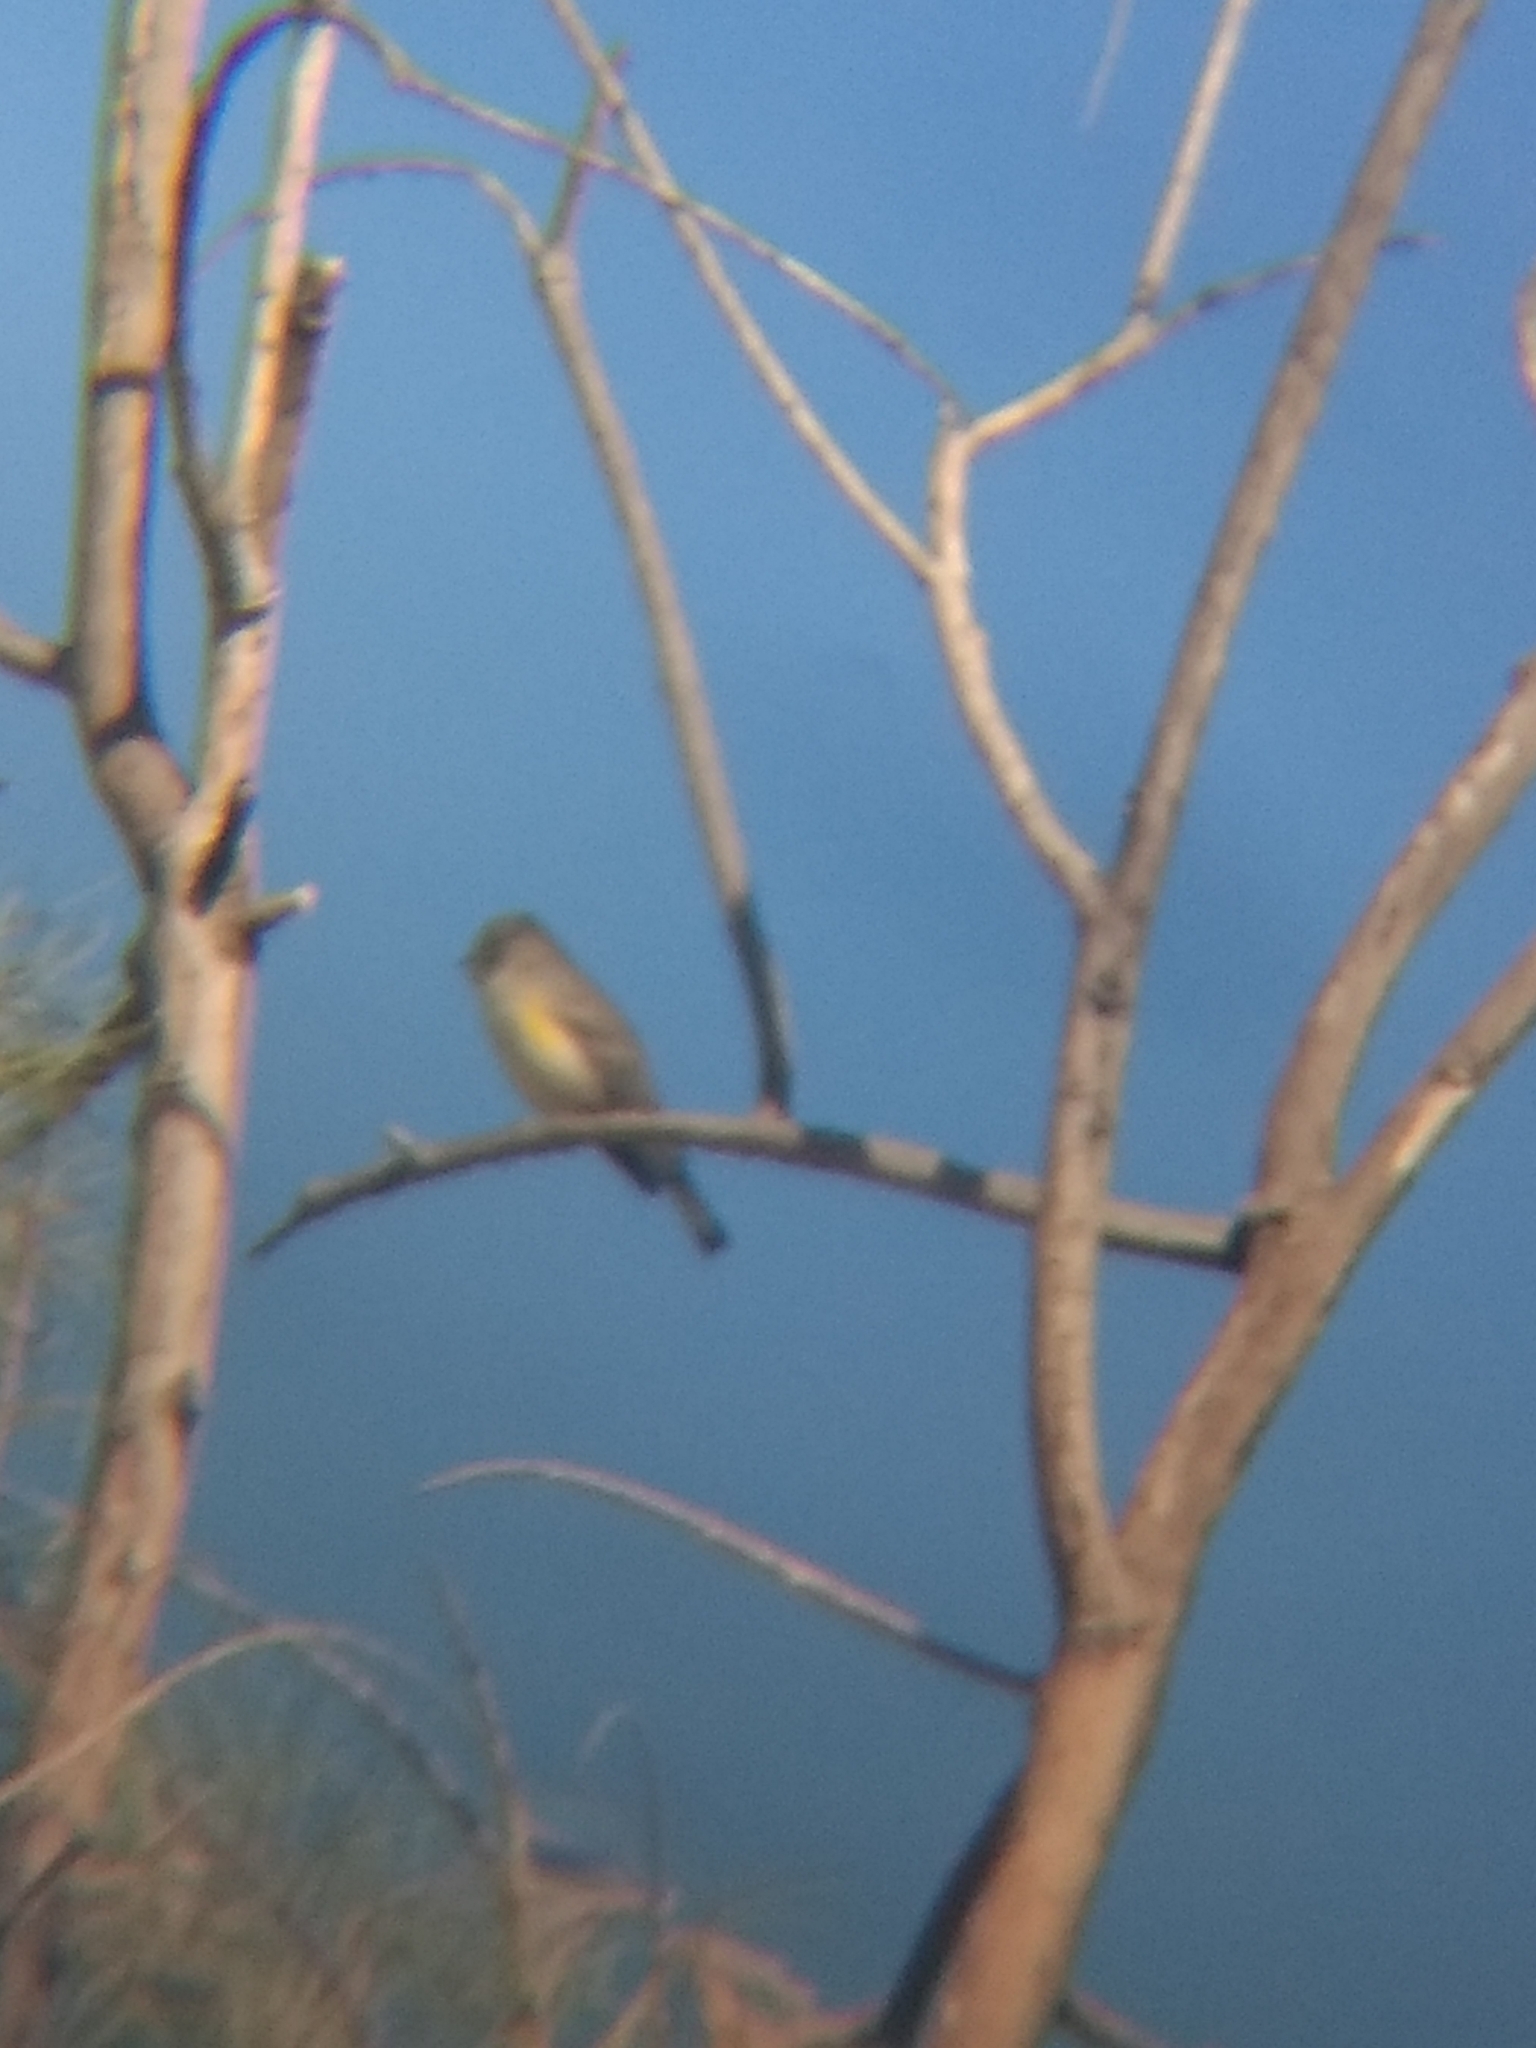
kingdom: Animalia
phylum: Chordata
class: Aves
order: Passeriformes
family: Parulidae
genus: Setophaga
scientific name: Setophaga coronata
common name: Myrtle warbler
